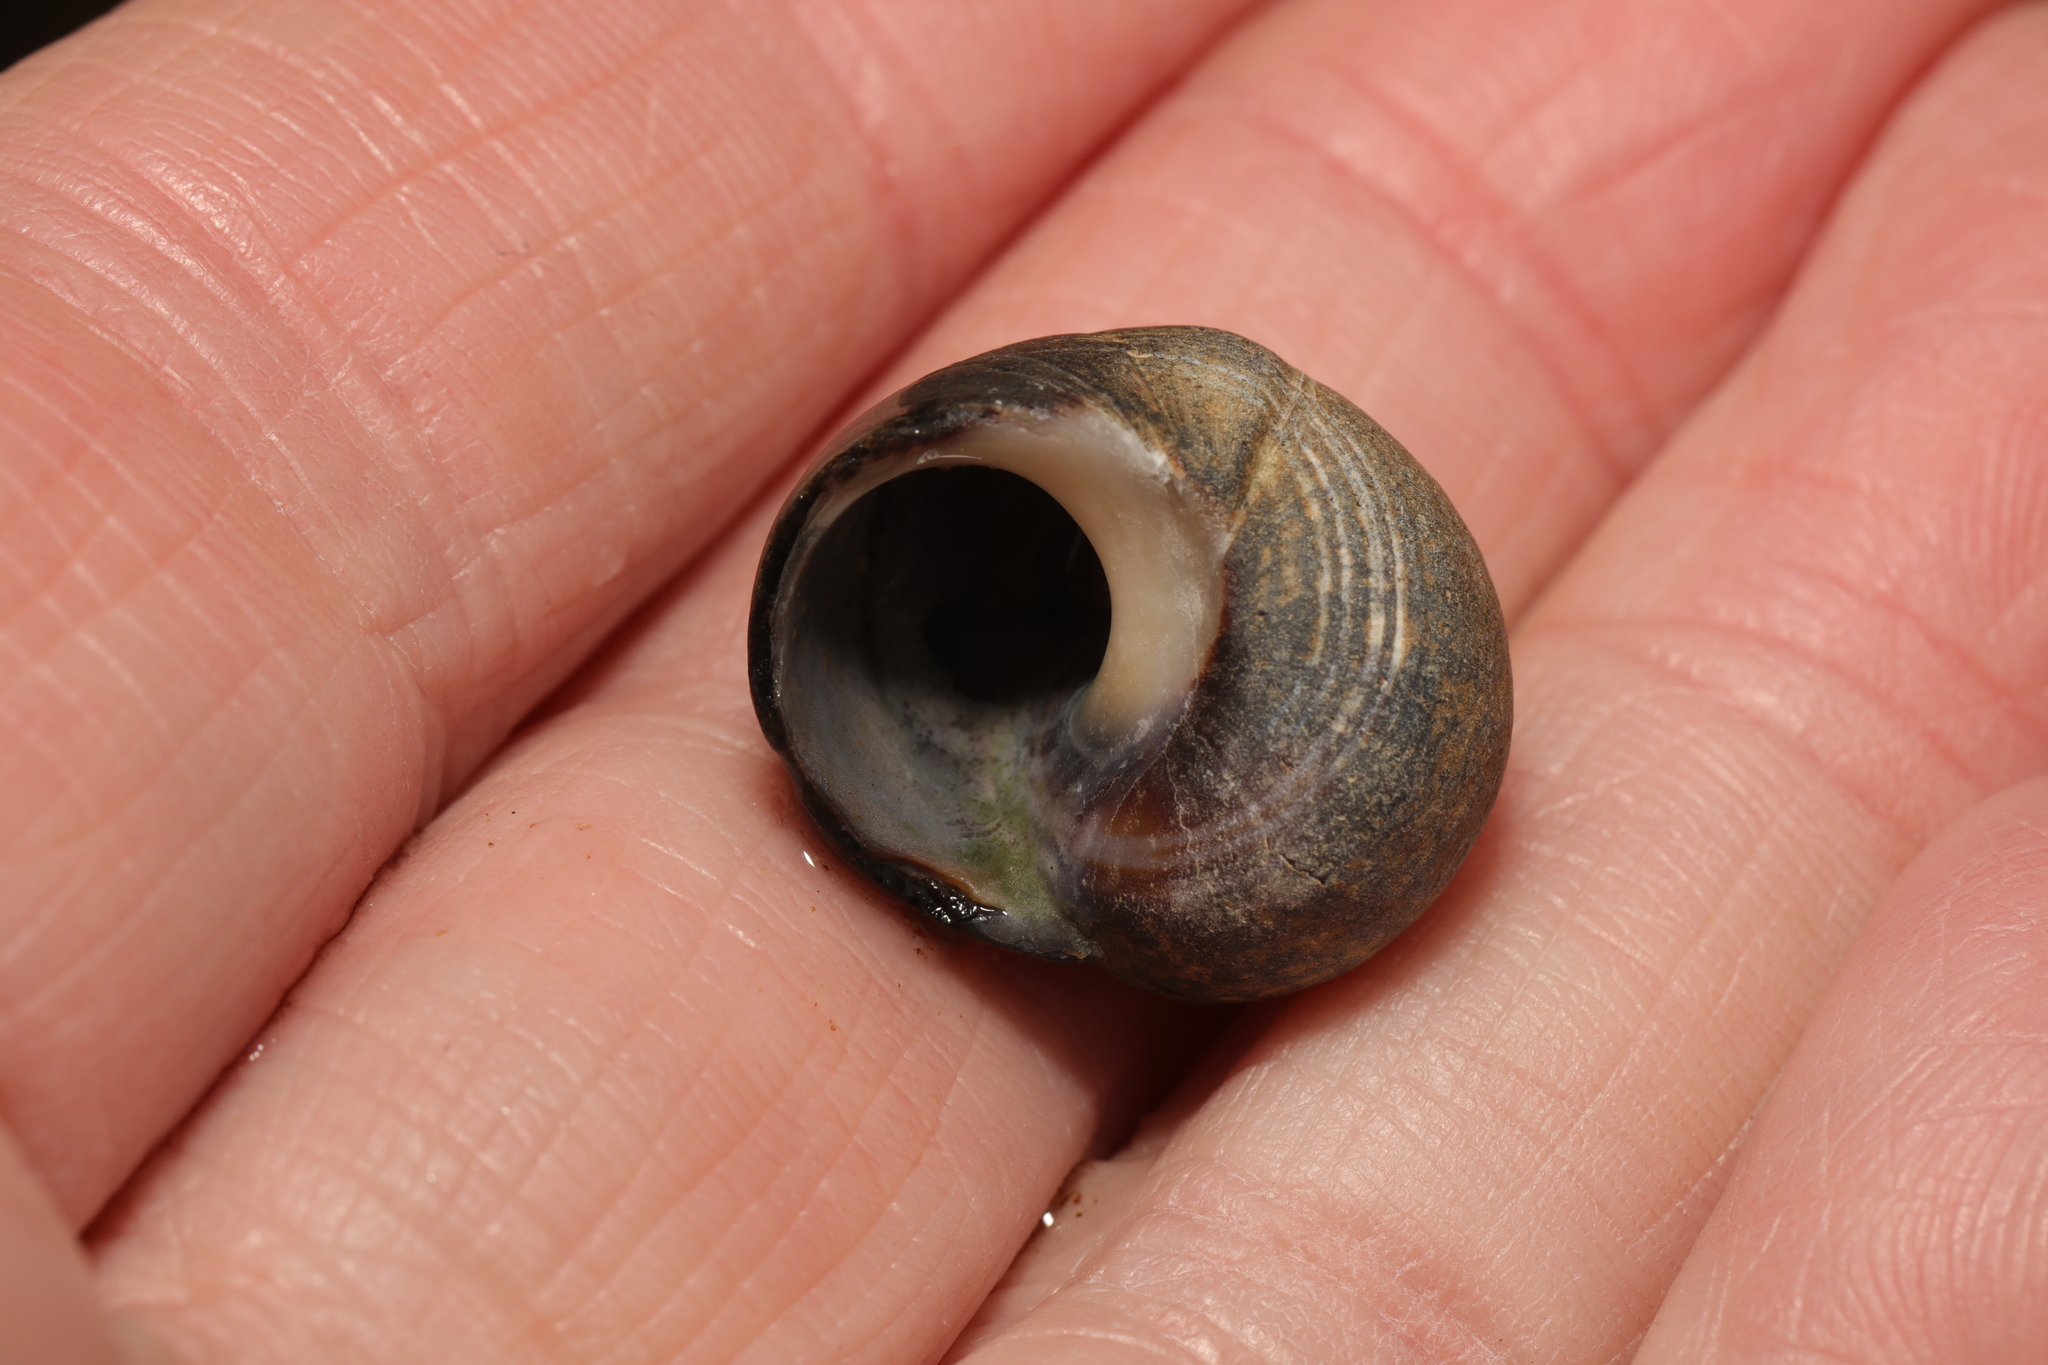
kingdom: Animalia
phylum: Mollusca
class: Gastropoda
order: Littorinimorpha
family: Littorinidae
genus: Littorina
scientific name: Littorina littorea
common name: Common periwinkle
